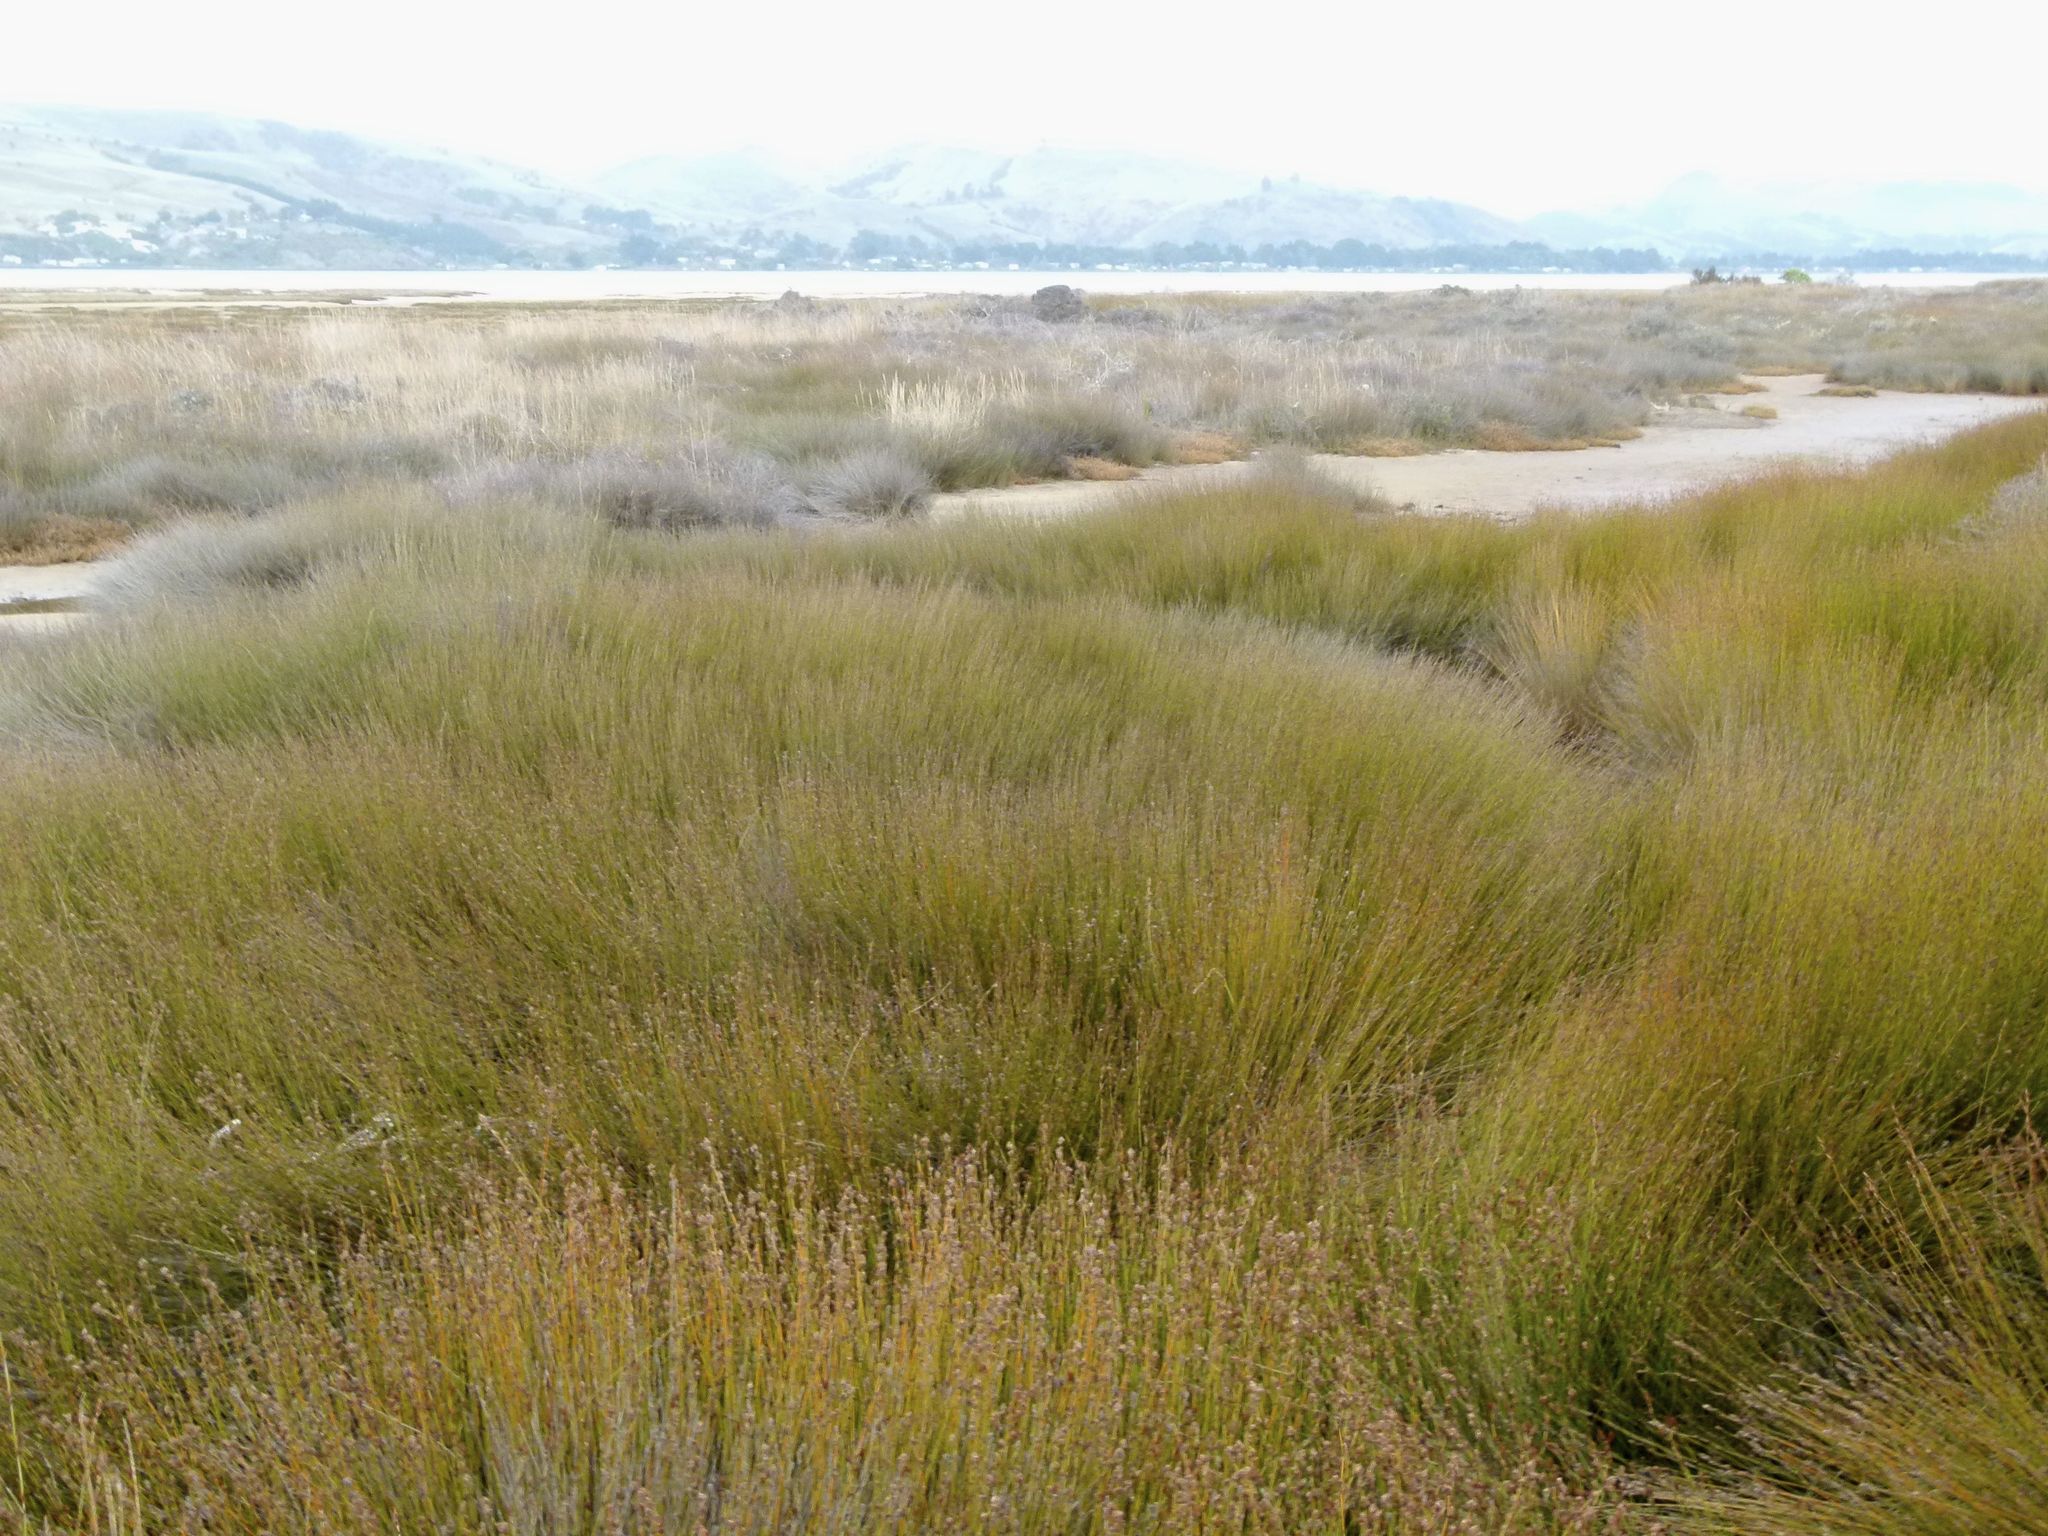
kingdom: Plantae
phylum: Tracheophyta
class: Liliopsida
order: Poales
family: Restionaceae
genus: Apodasmia
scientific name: Apodasmia similis
